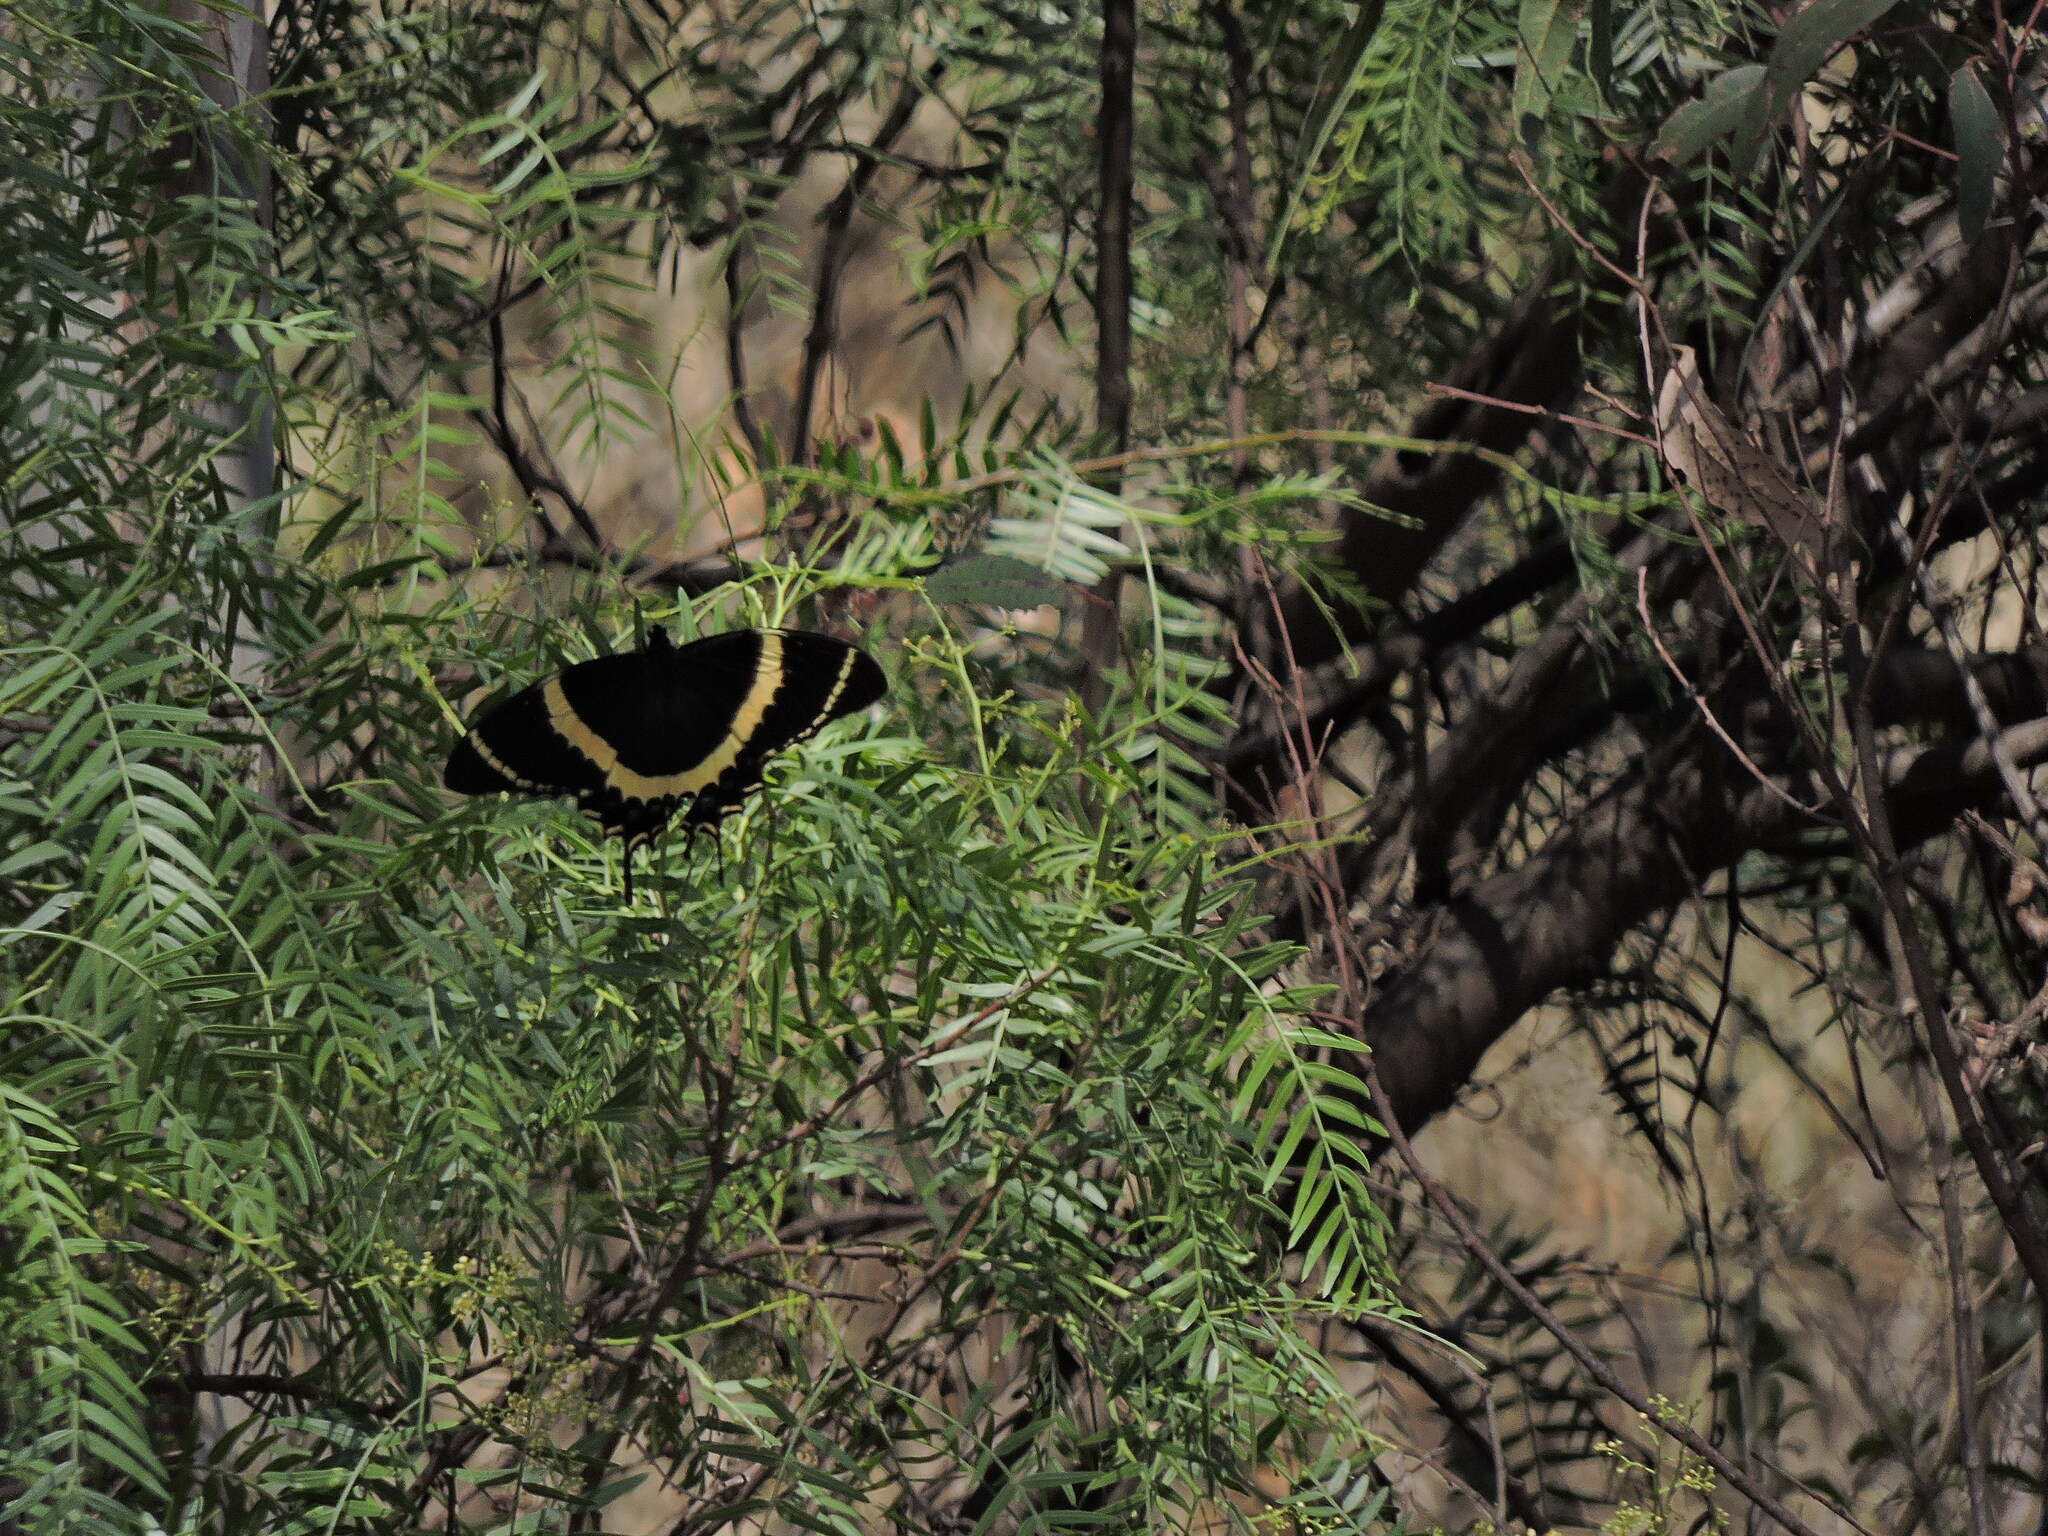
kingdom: Animalia
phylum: Arthropoda
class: Insecta
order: Lepidoptera
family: Papilionidae
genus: Papilio
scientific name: Papilio garamas
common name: Magnificent swallowtail
